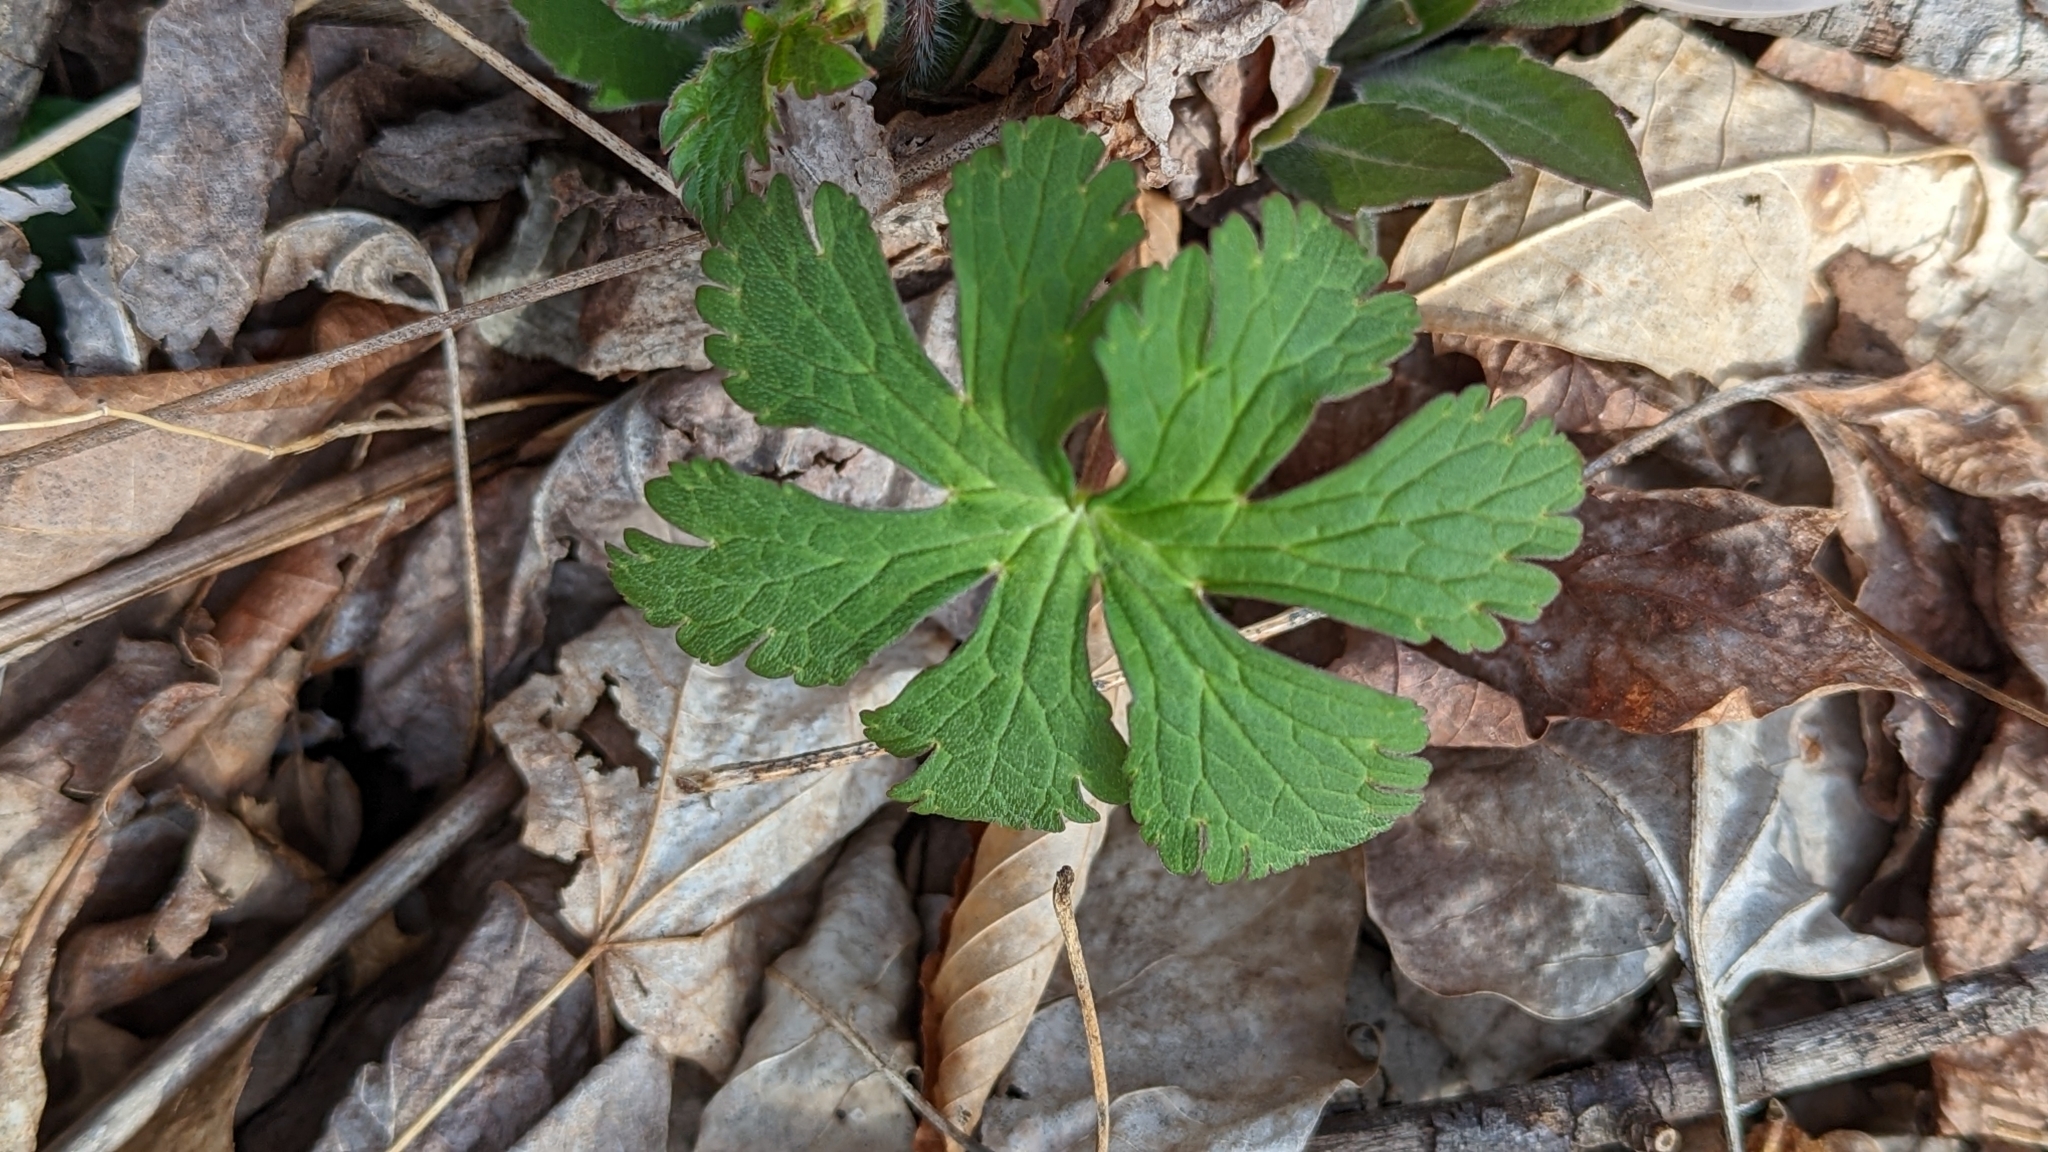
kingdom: Plantae
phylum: Tracheophyta
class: Magnoliopsida
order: Geraniales
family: Geraniaceae
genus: Geranium
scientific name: Geranium maculatum
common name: Spotted geranium
